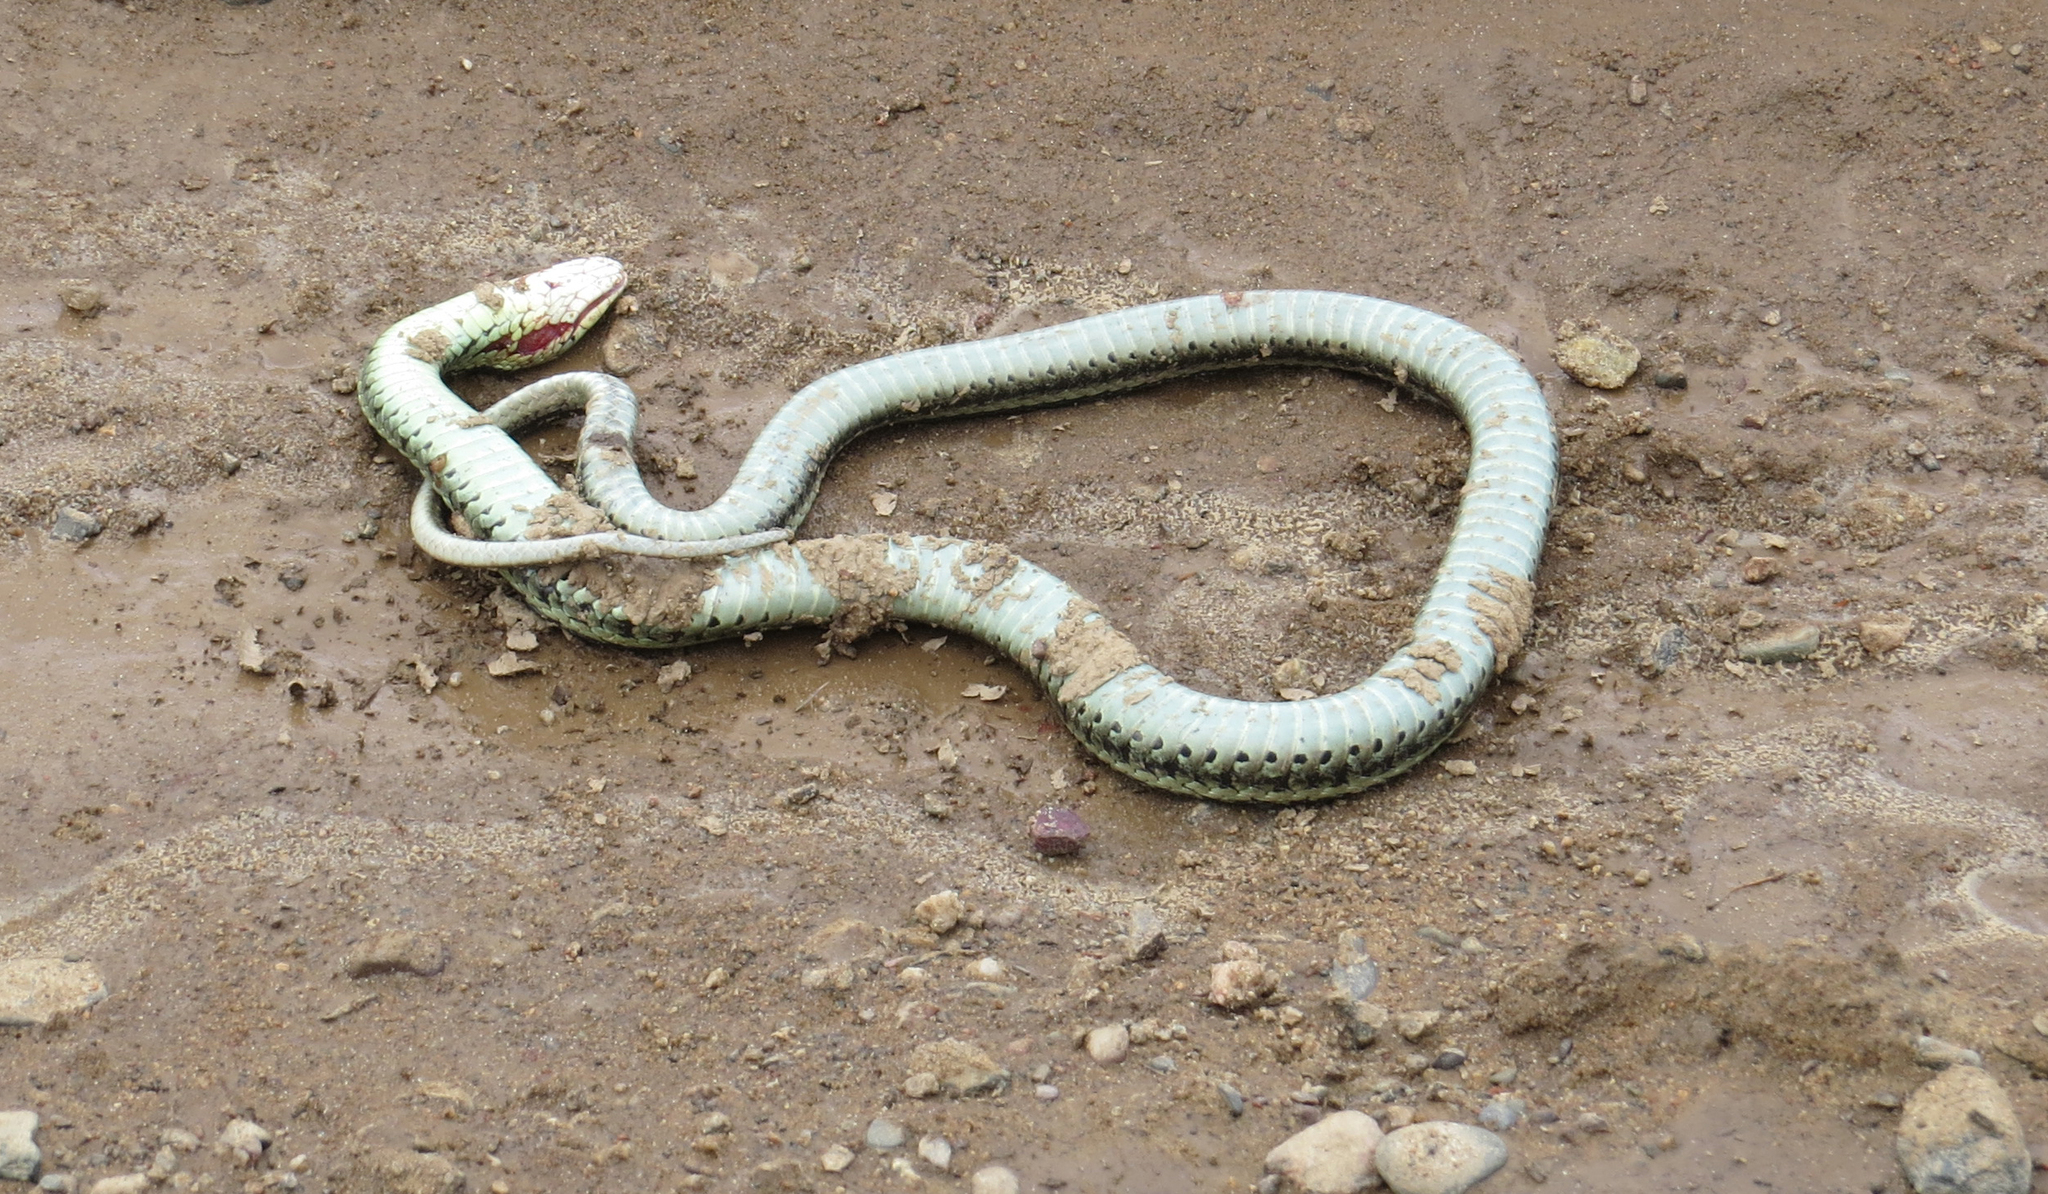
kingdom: Animalia
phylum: Chordata
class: Squamata
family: Colubridae
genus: Thamnophis
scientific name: Thamnophis
